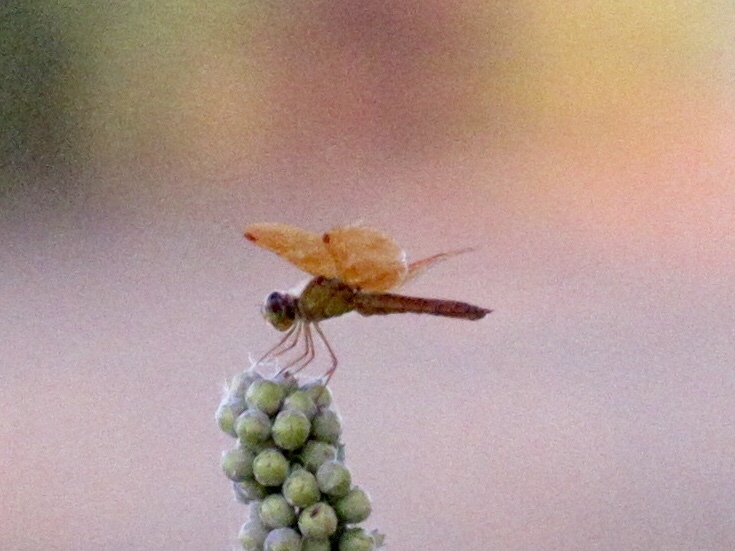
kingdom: Animalia
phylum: Arthropoda
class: Insecta
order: Odonata
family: Libellulidae
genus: Perithemis
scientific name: Perithemis intensa
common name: Mexican amberwing
